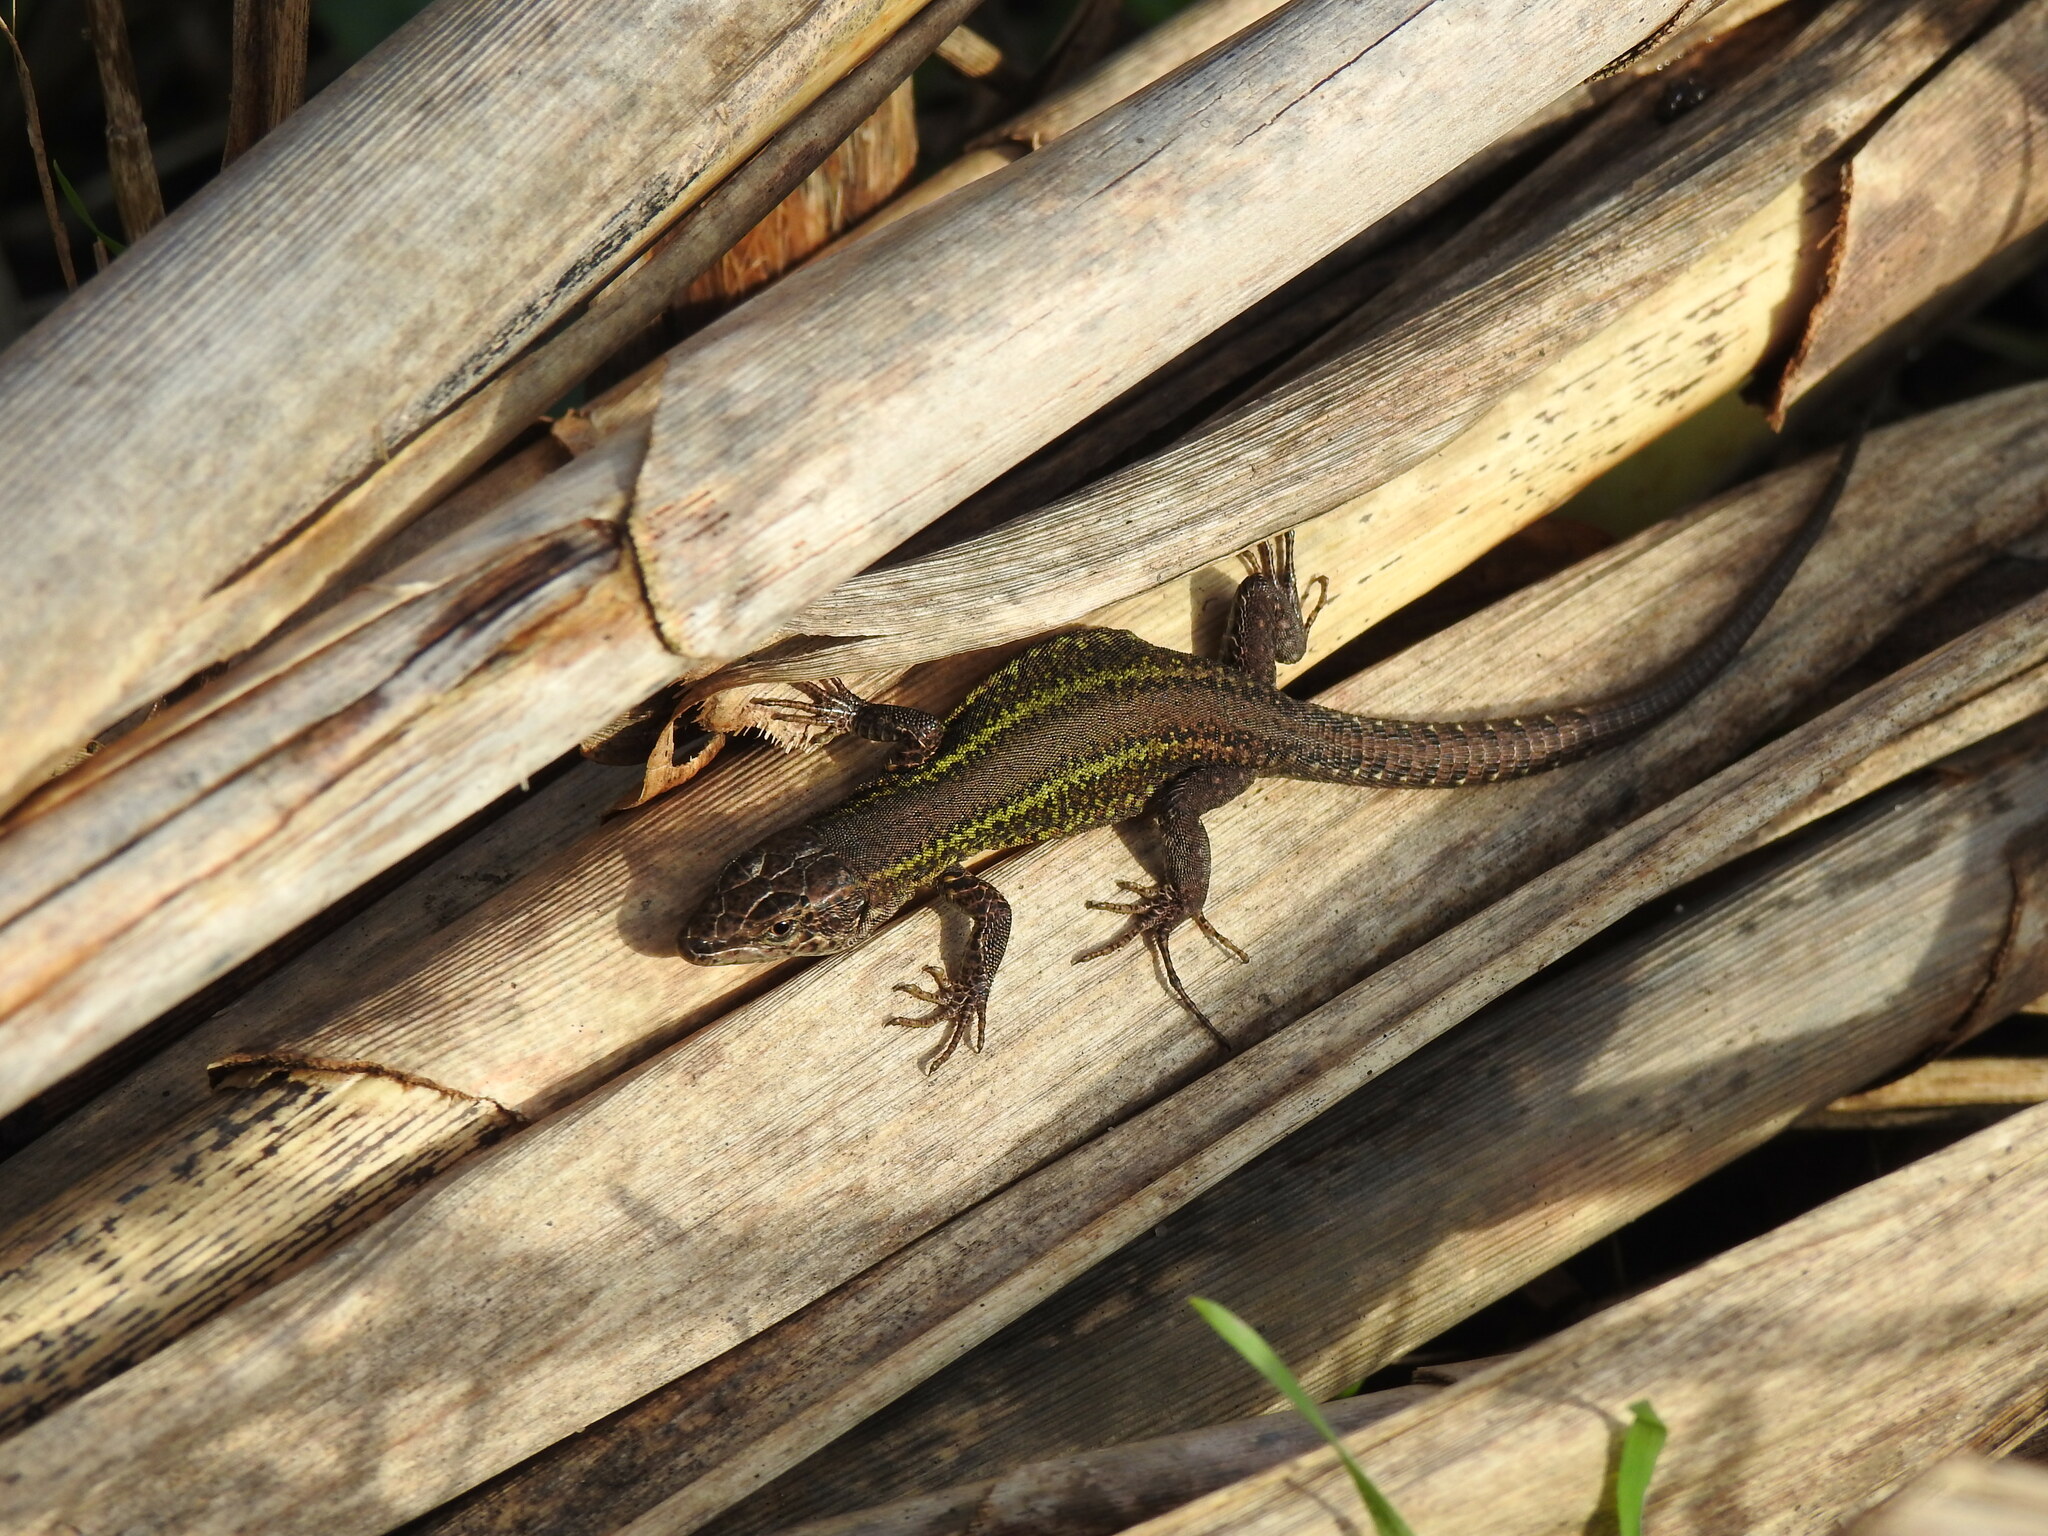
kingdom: Animalia
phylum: Chordata
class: Squamata
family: Lacertidae
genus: Podarcis
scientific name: Podarcis carbonelli
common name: Carbonelli's wall lizard
